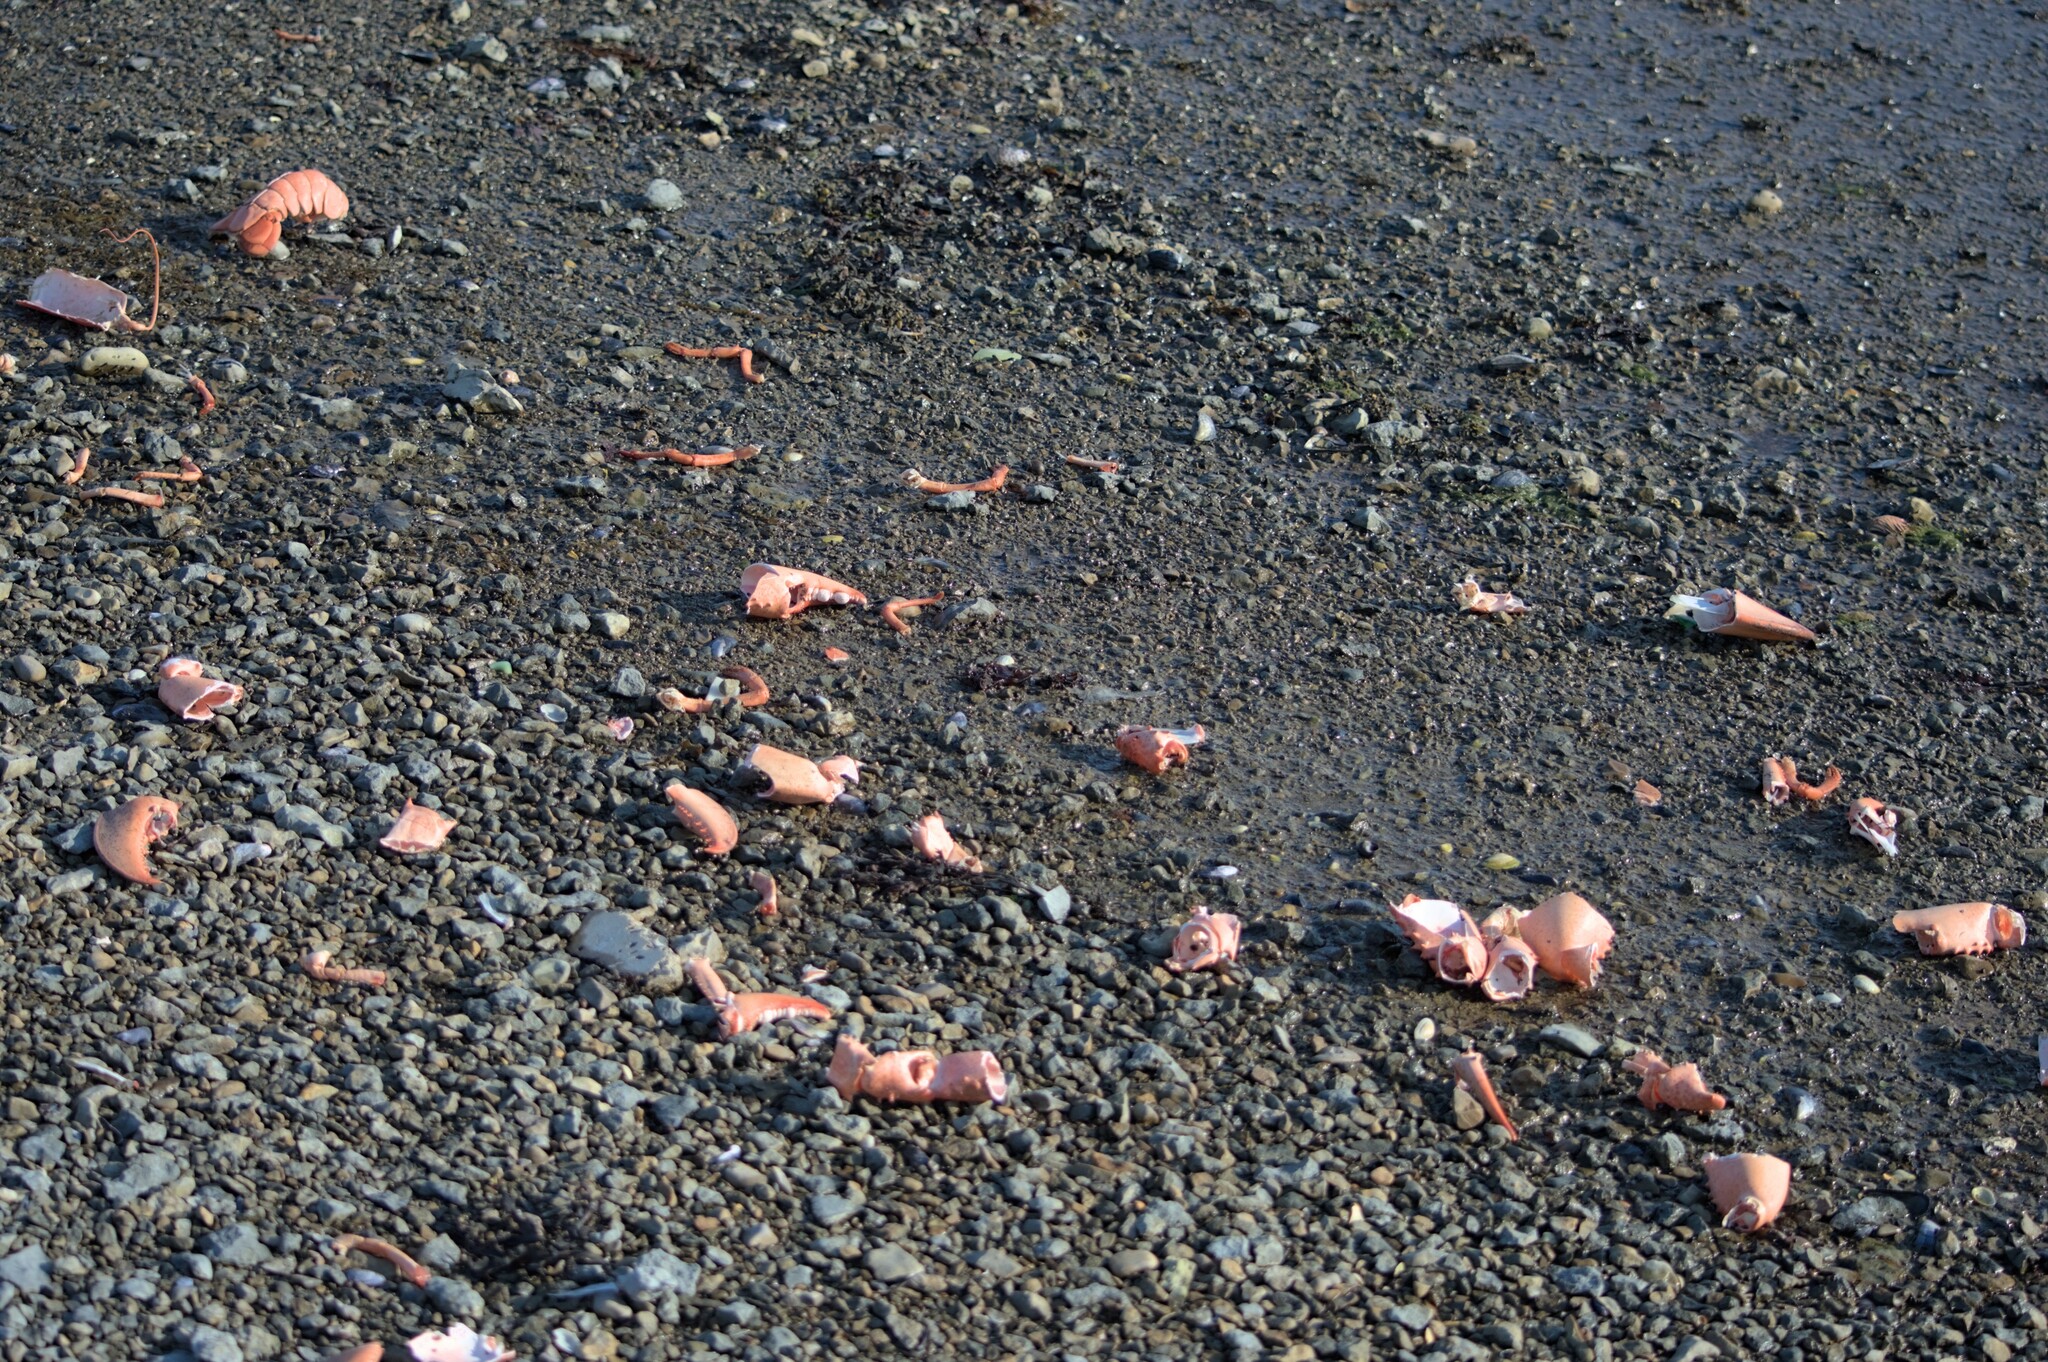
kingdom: Animalia
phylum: Arthropoda
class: Malacostraca
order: Decapoda
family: Nephropidae
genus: Homarus
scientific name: Homarus americanus
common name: American lobster
